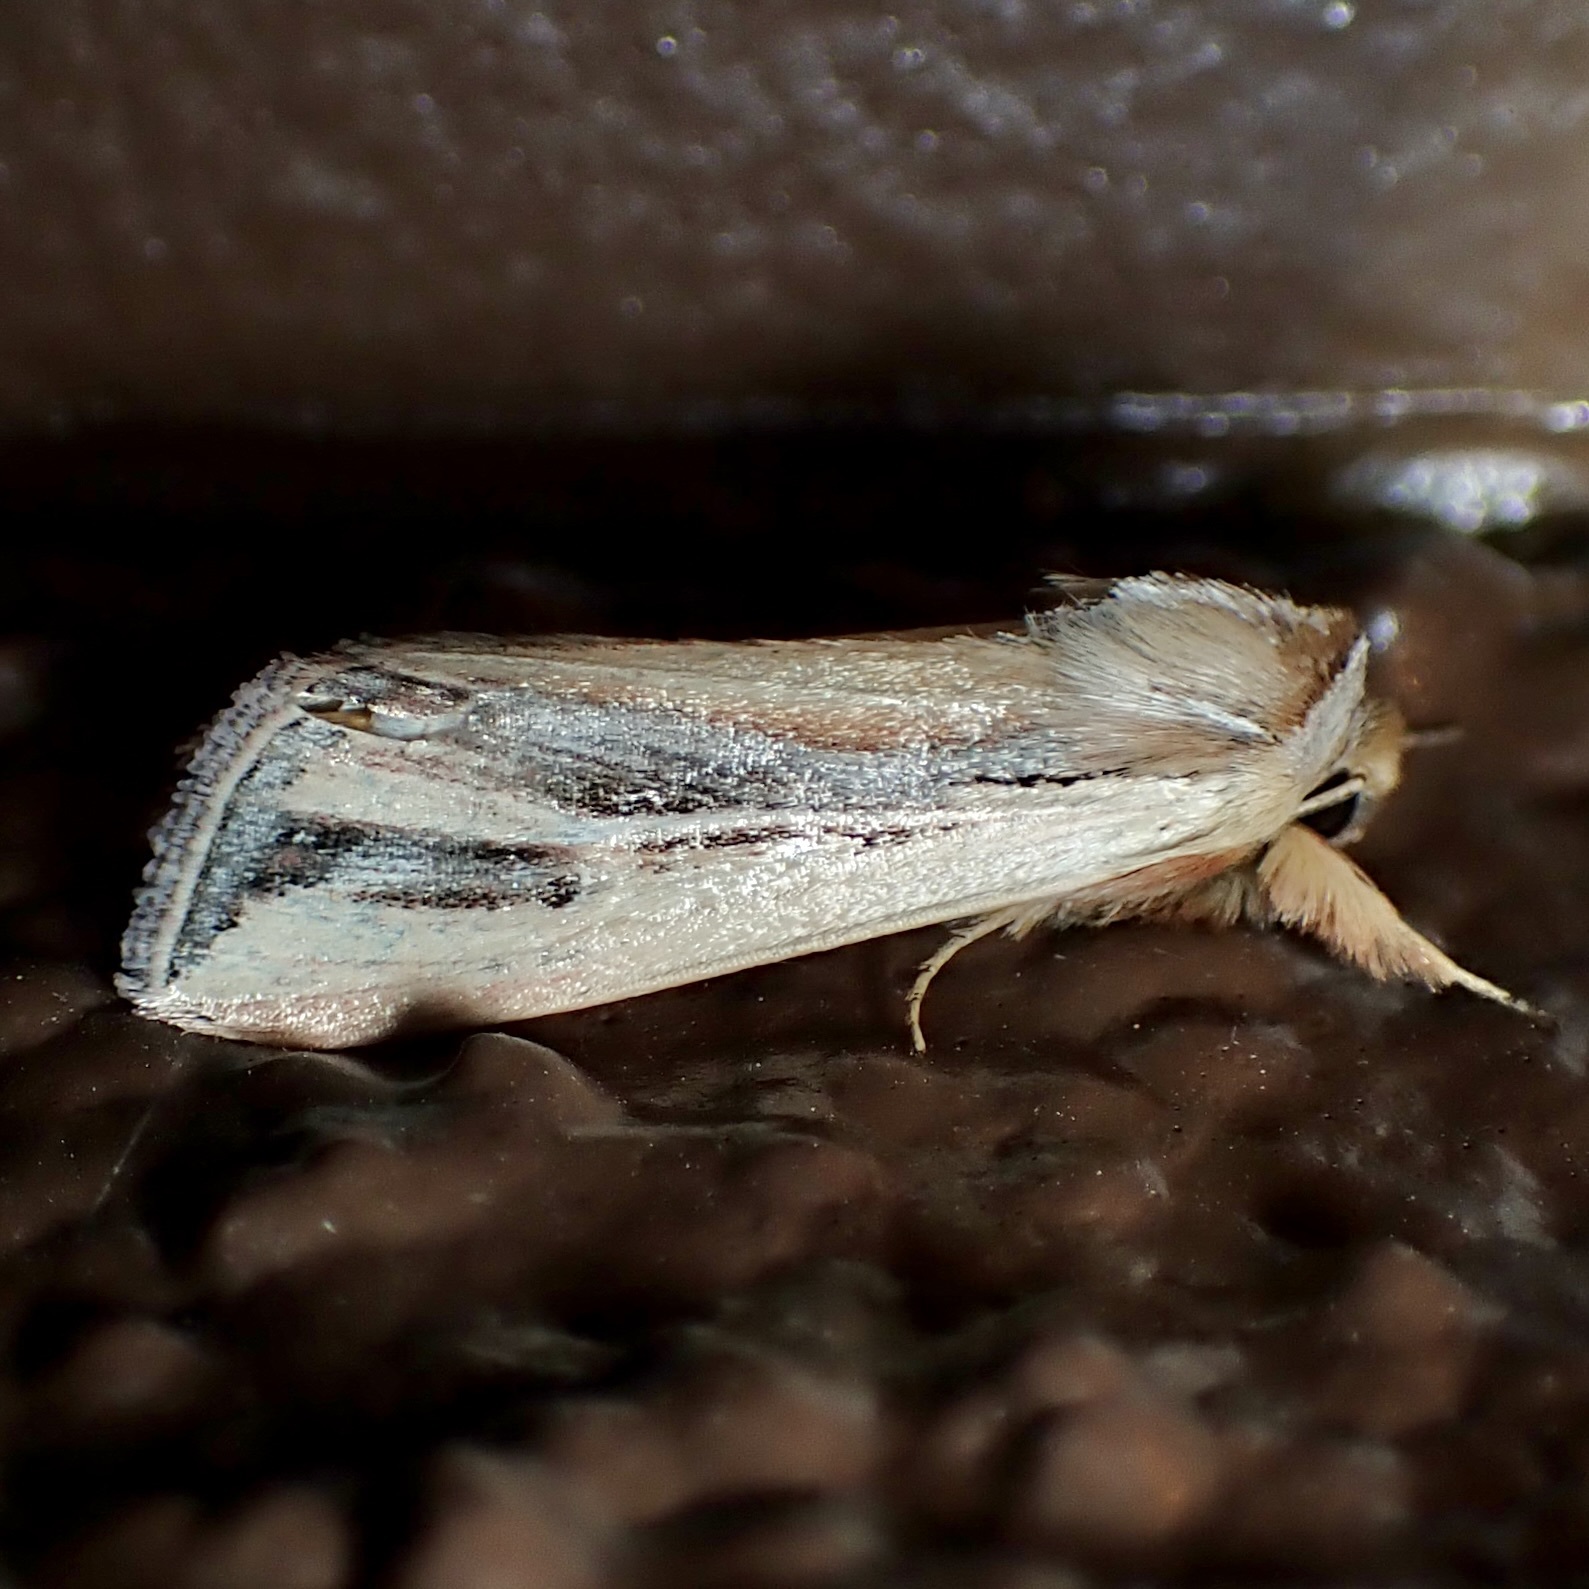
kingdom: Animalia
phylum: Arthropoda
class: Insecta
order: Lepidoptera
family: Noctuidae
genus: Dargida
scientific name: Dargida tetera
